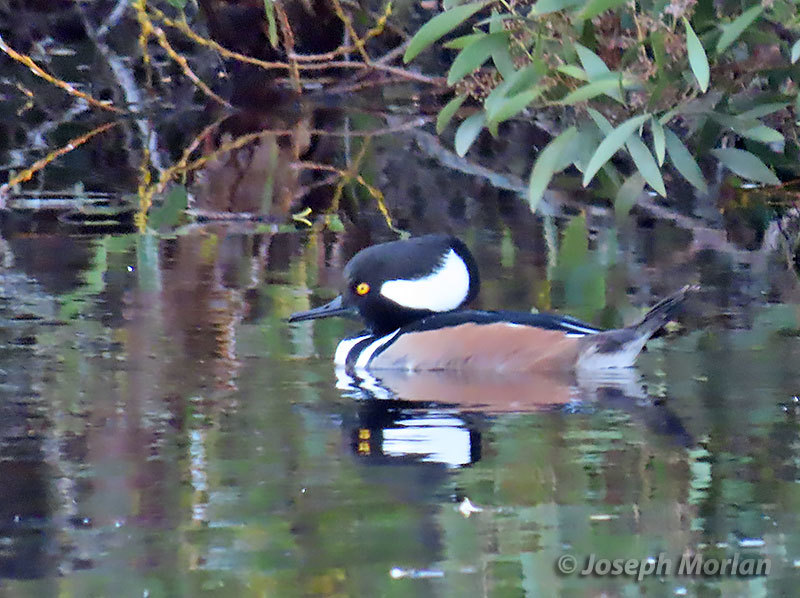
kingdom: Animalia
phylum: Chordata
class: Aves
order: Anseriformes
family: Anatidae
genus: Lophodytes
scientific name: Lophodytes cucullatus
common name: Hooded merganser
